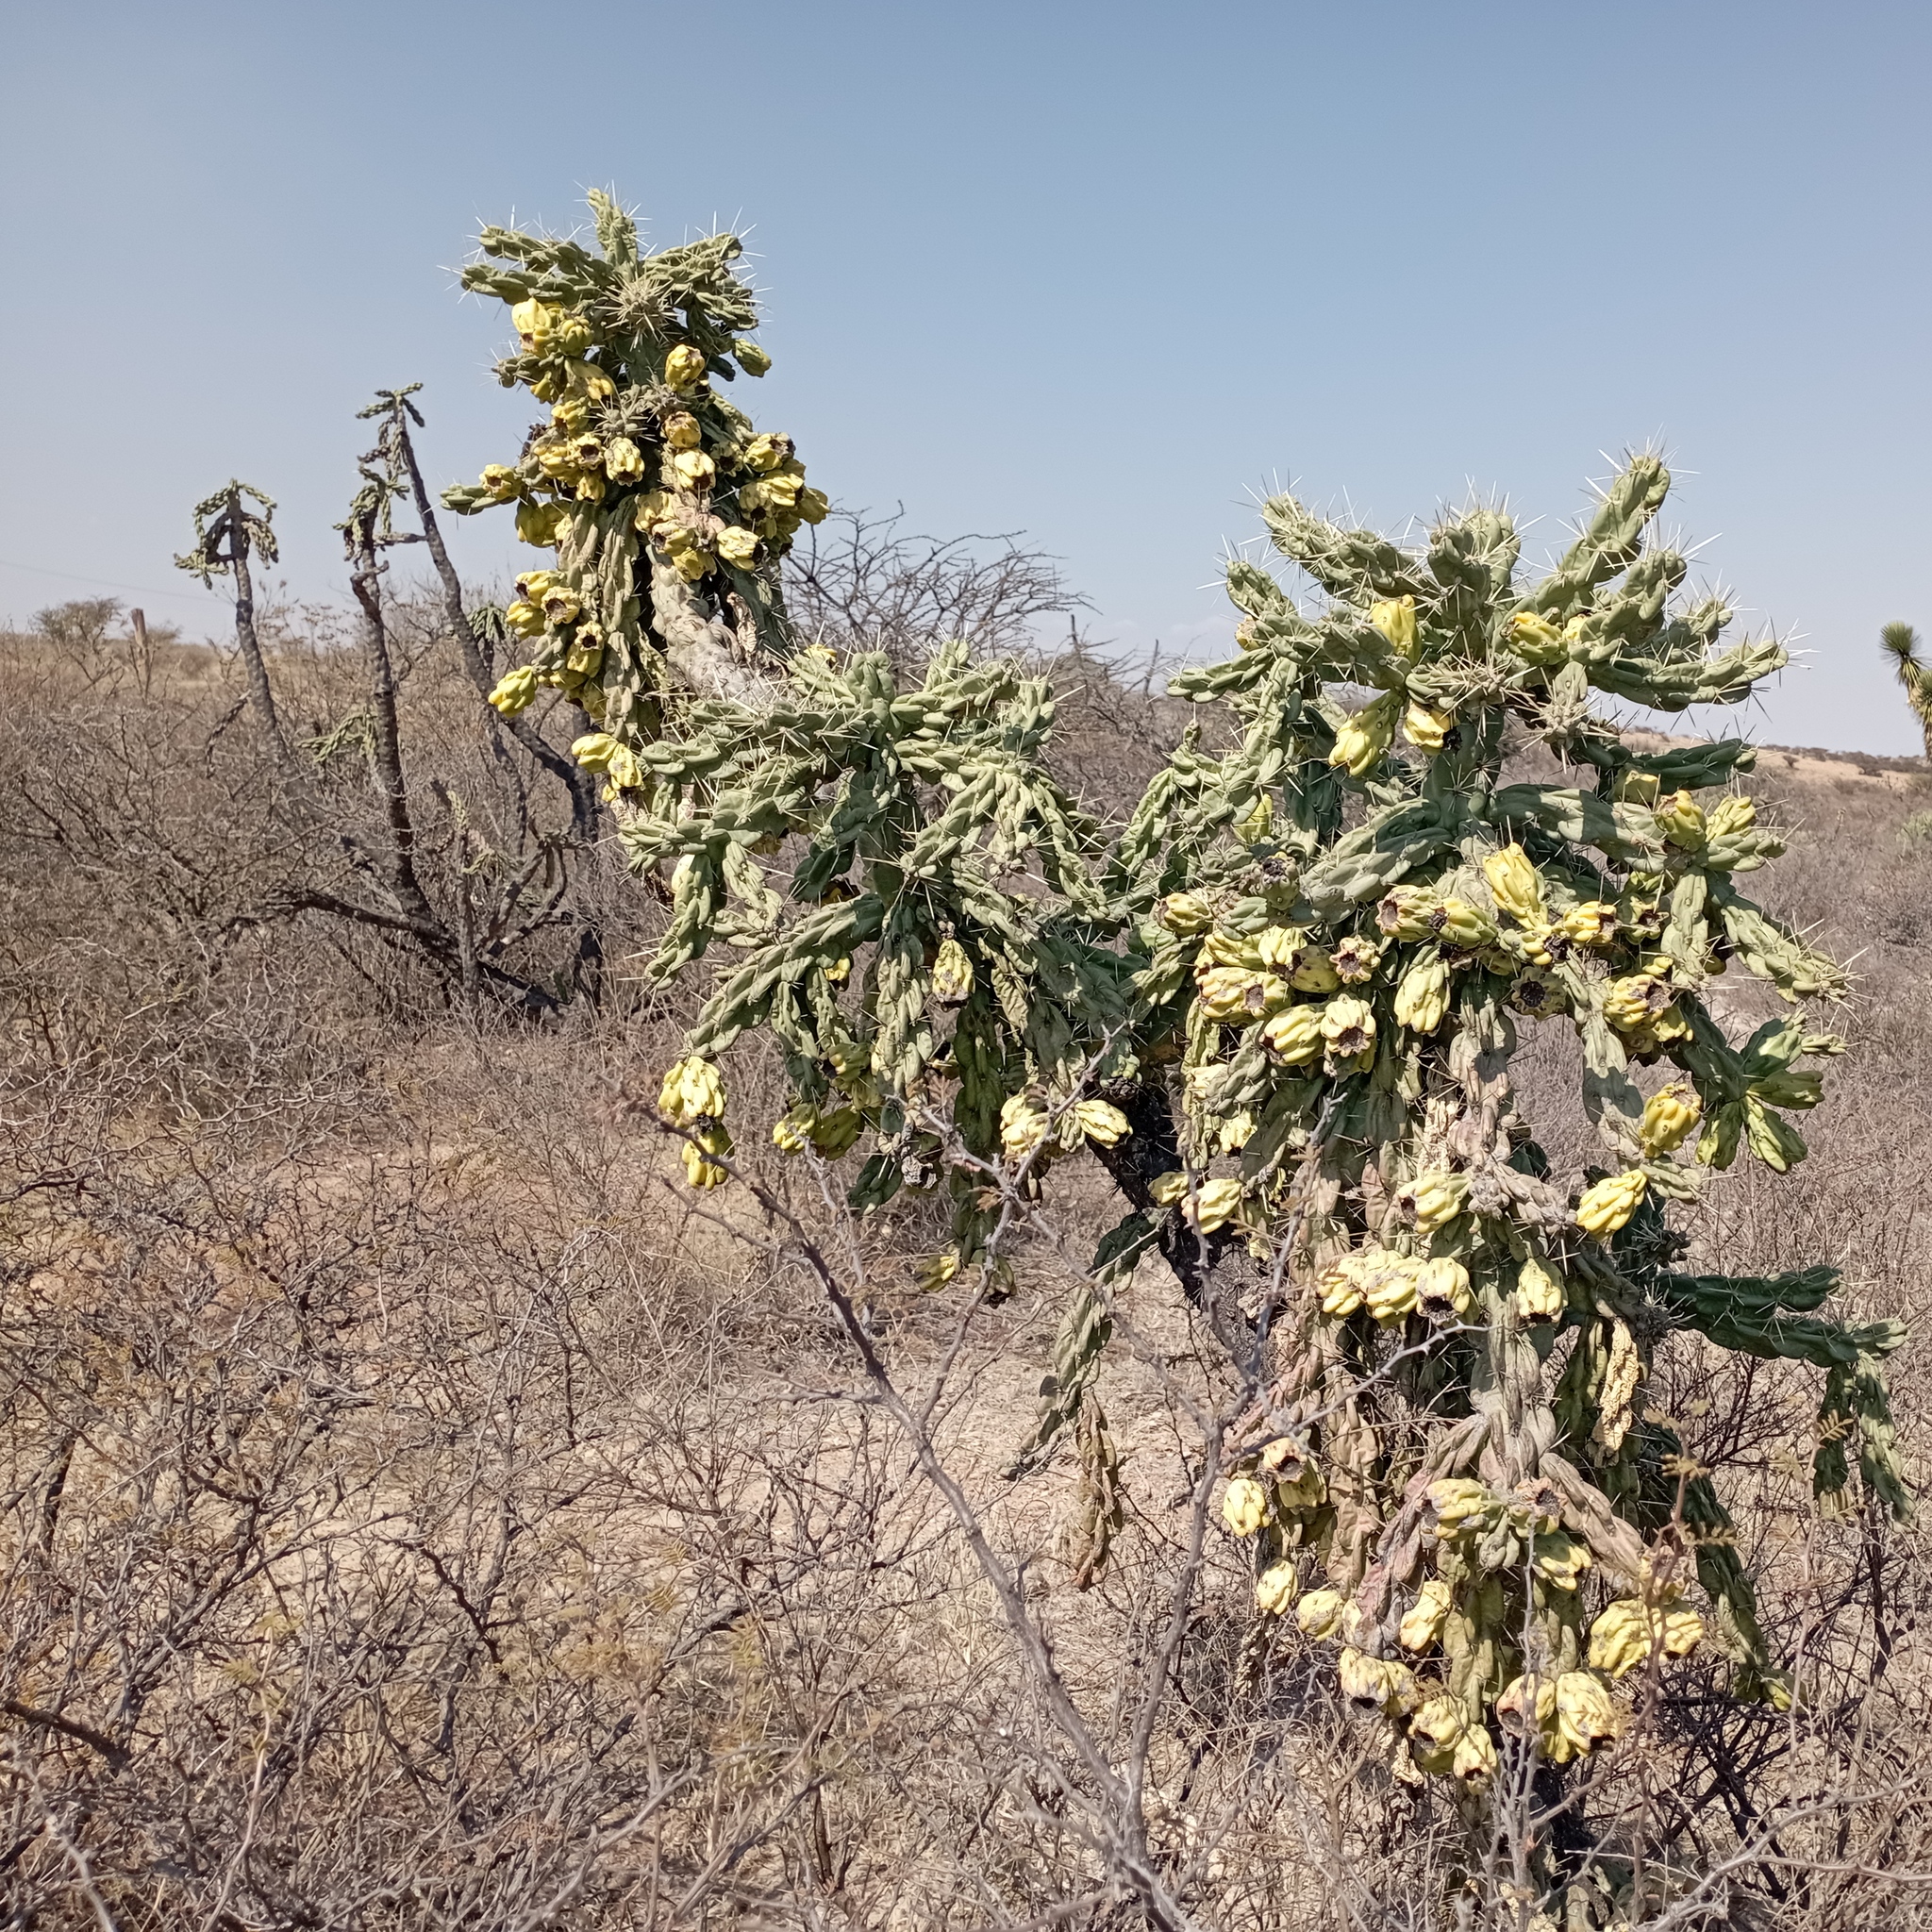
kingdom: Plantae
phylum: Tracheophyta
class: Magnoliopsida
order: Caryophyllales
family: Cactaceae
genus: Cylindropuntia
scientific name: Cylindropuntia imbricata
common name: Candelabrum cactus
